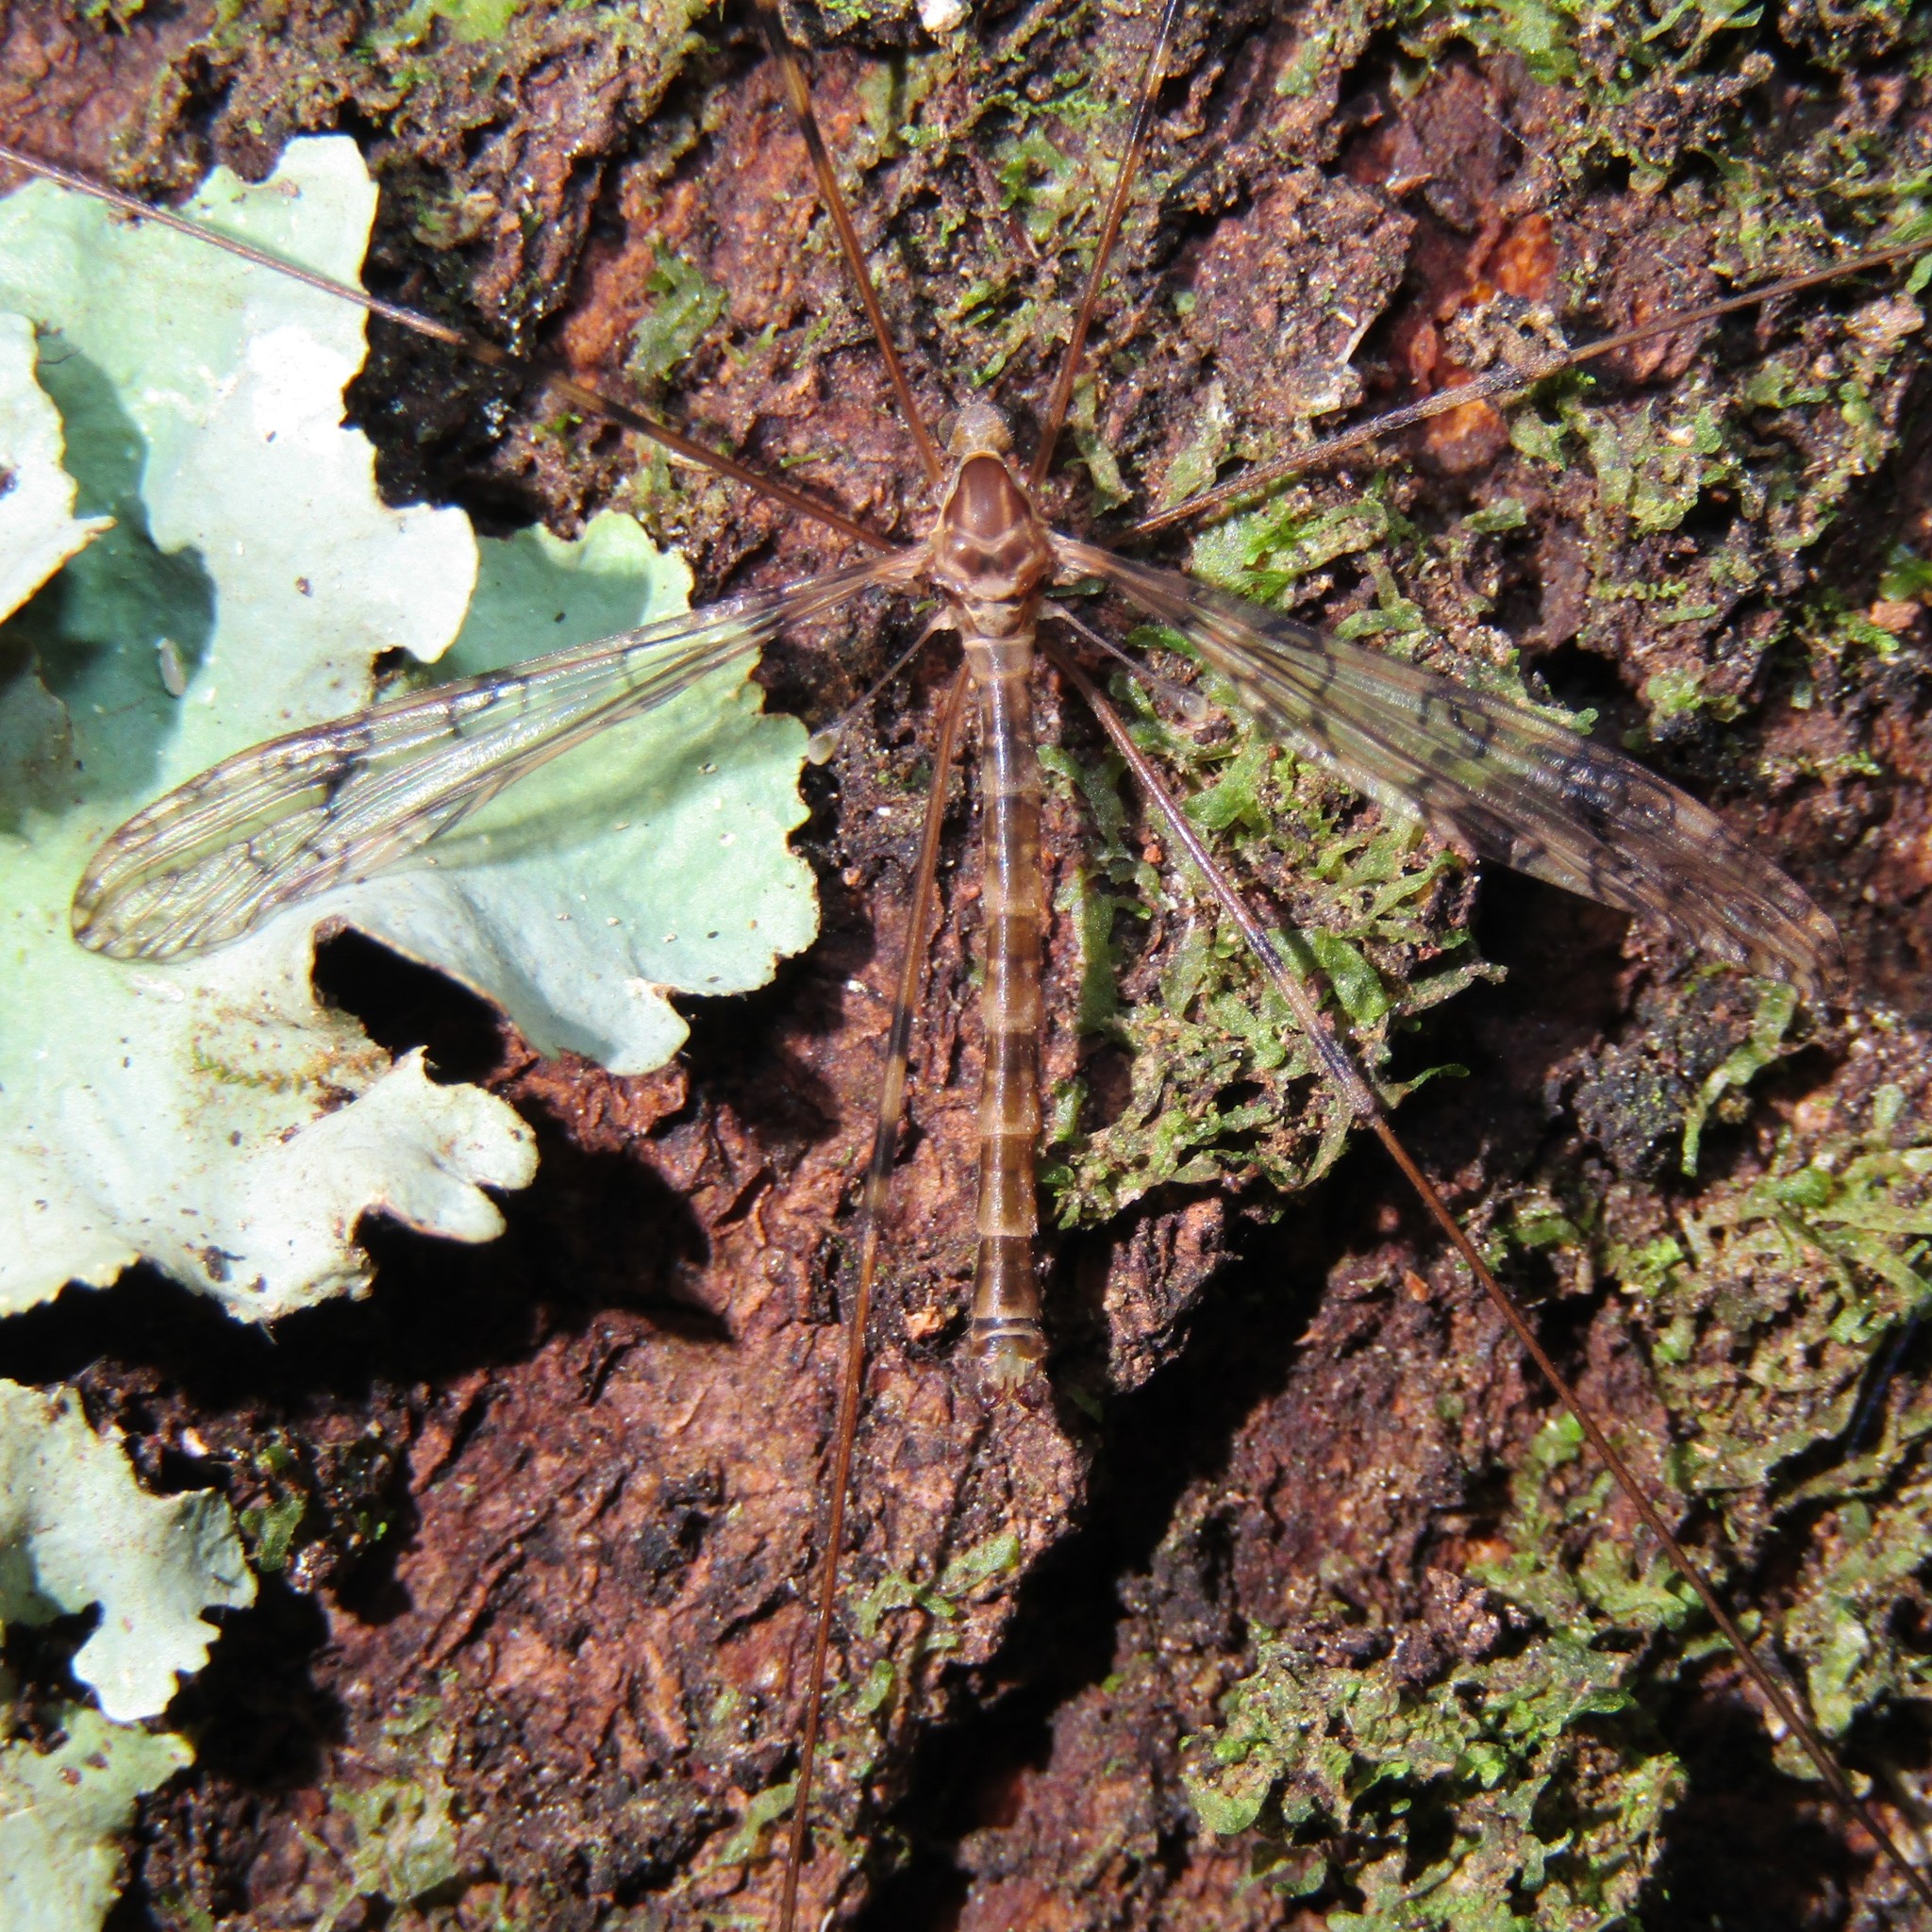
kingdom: Animalia
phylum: Arthropoda
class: Insecta
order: Diptera
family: Limoniidae
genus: Austrolimnophila
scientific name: Austrolimnophila argus
